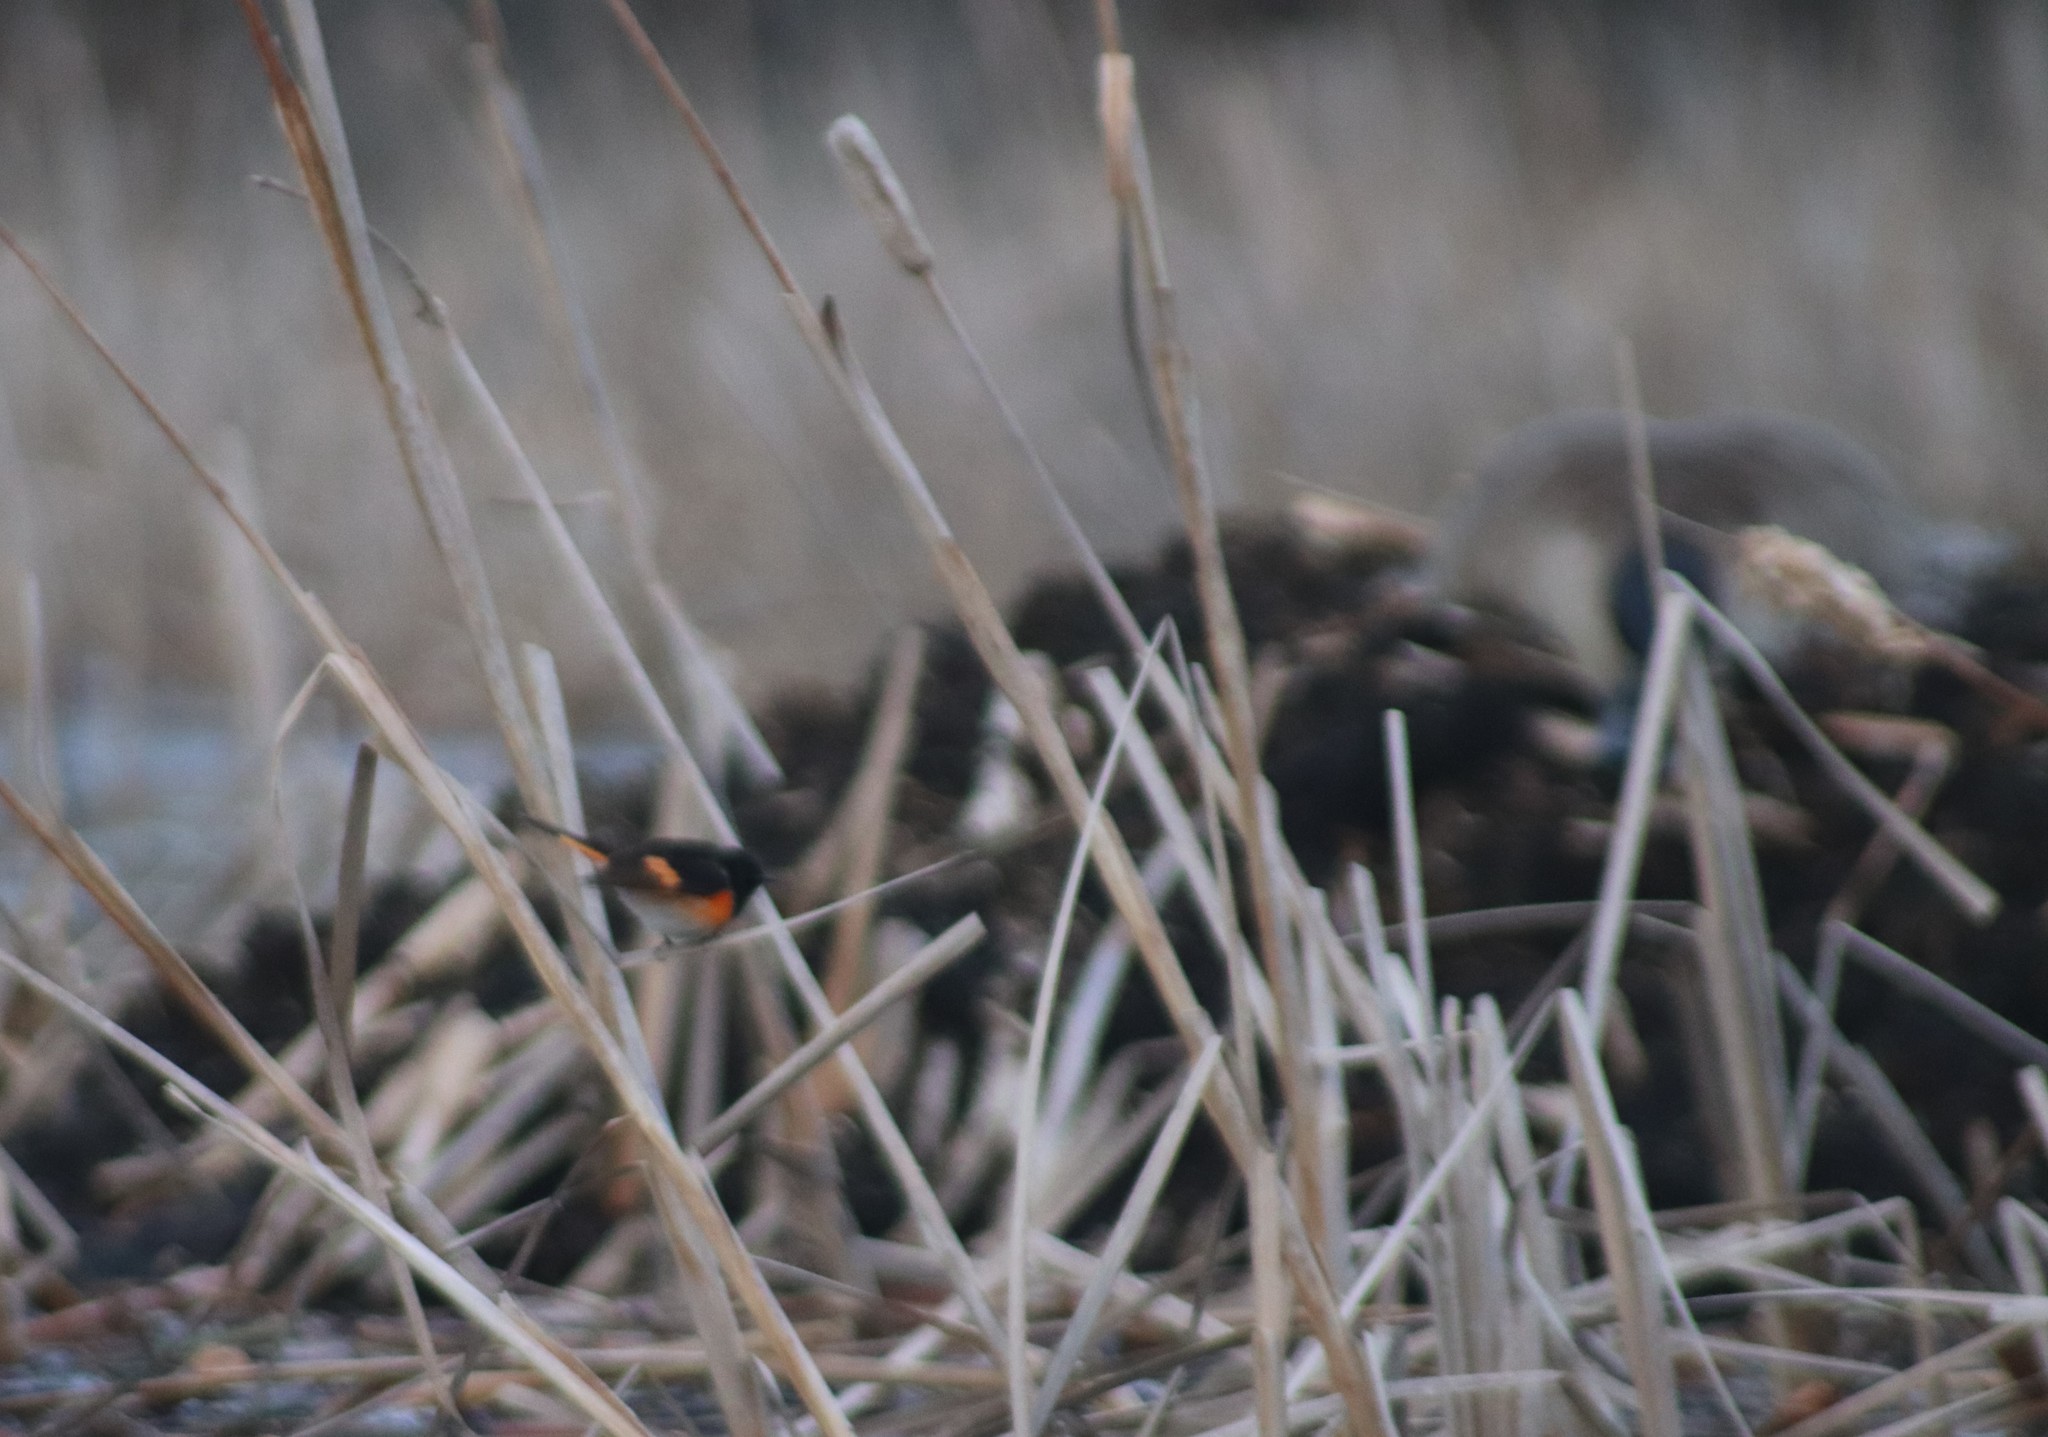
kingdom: Animalia
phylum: Chordata
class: Aves
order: Passeriformes
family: Parulidae
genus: Setophaga
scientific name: Setophaga ruticilla
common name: American redstart
